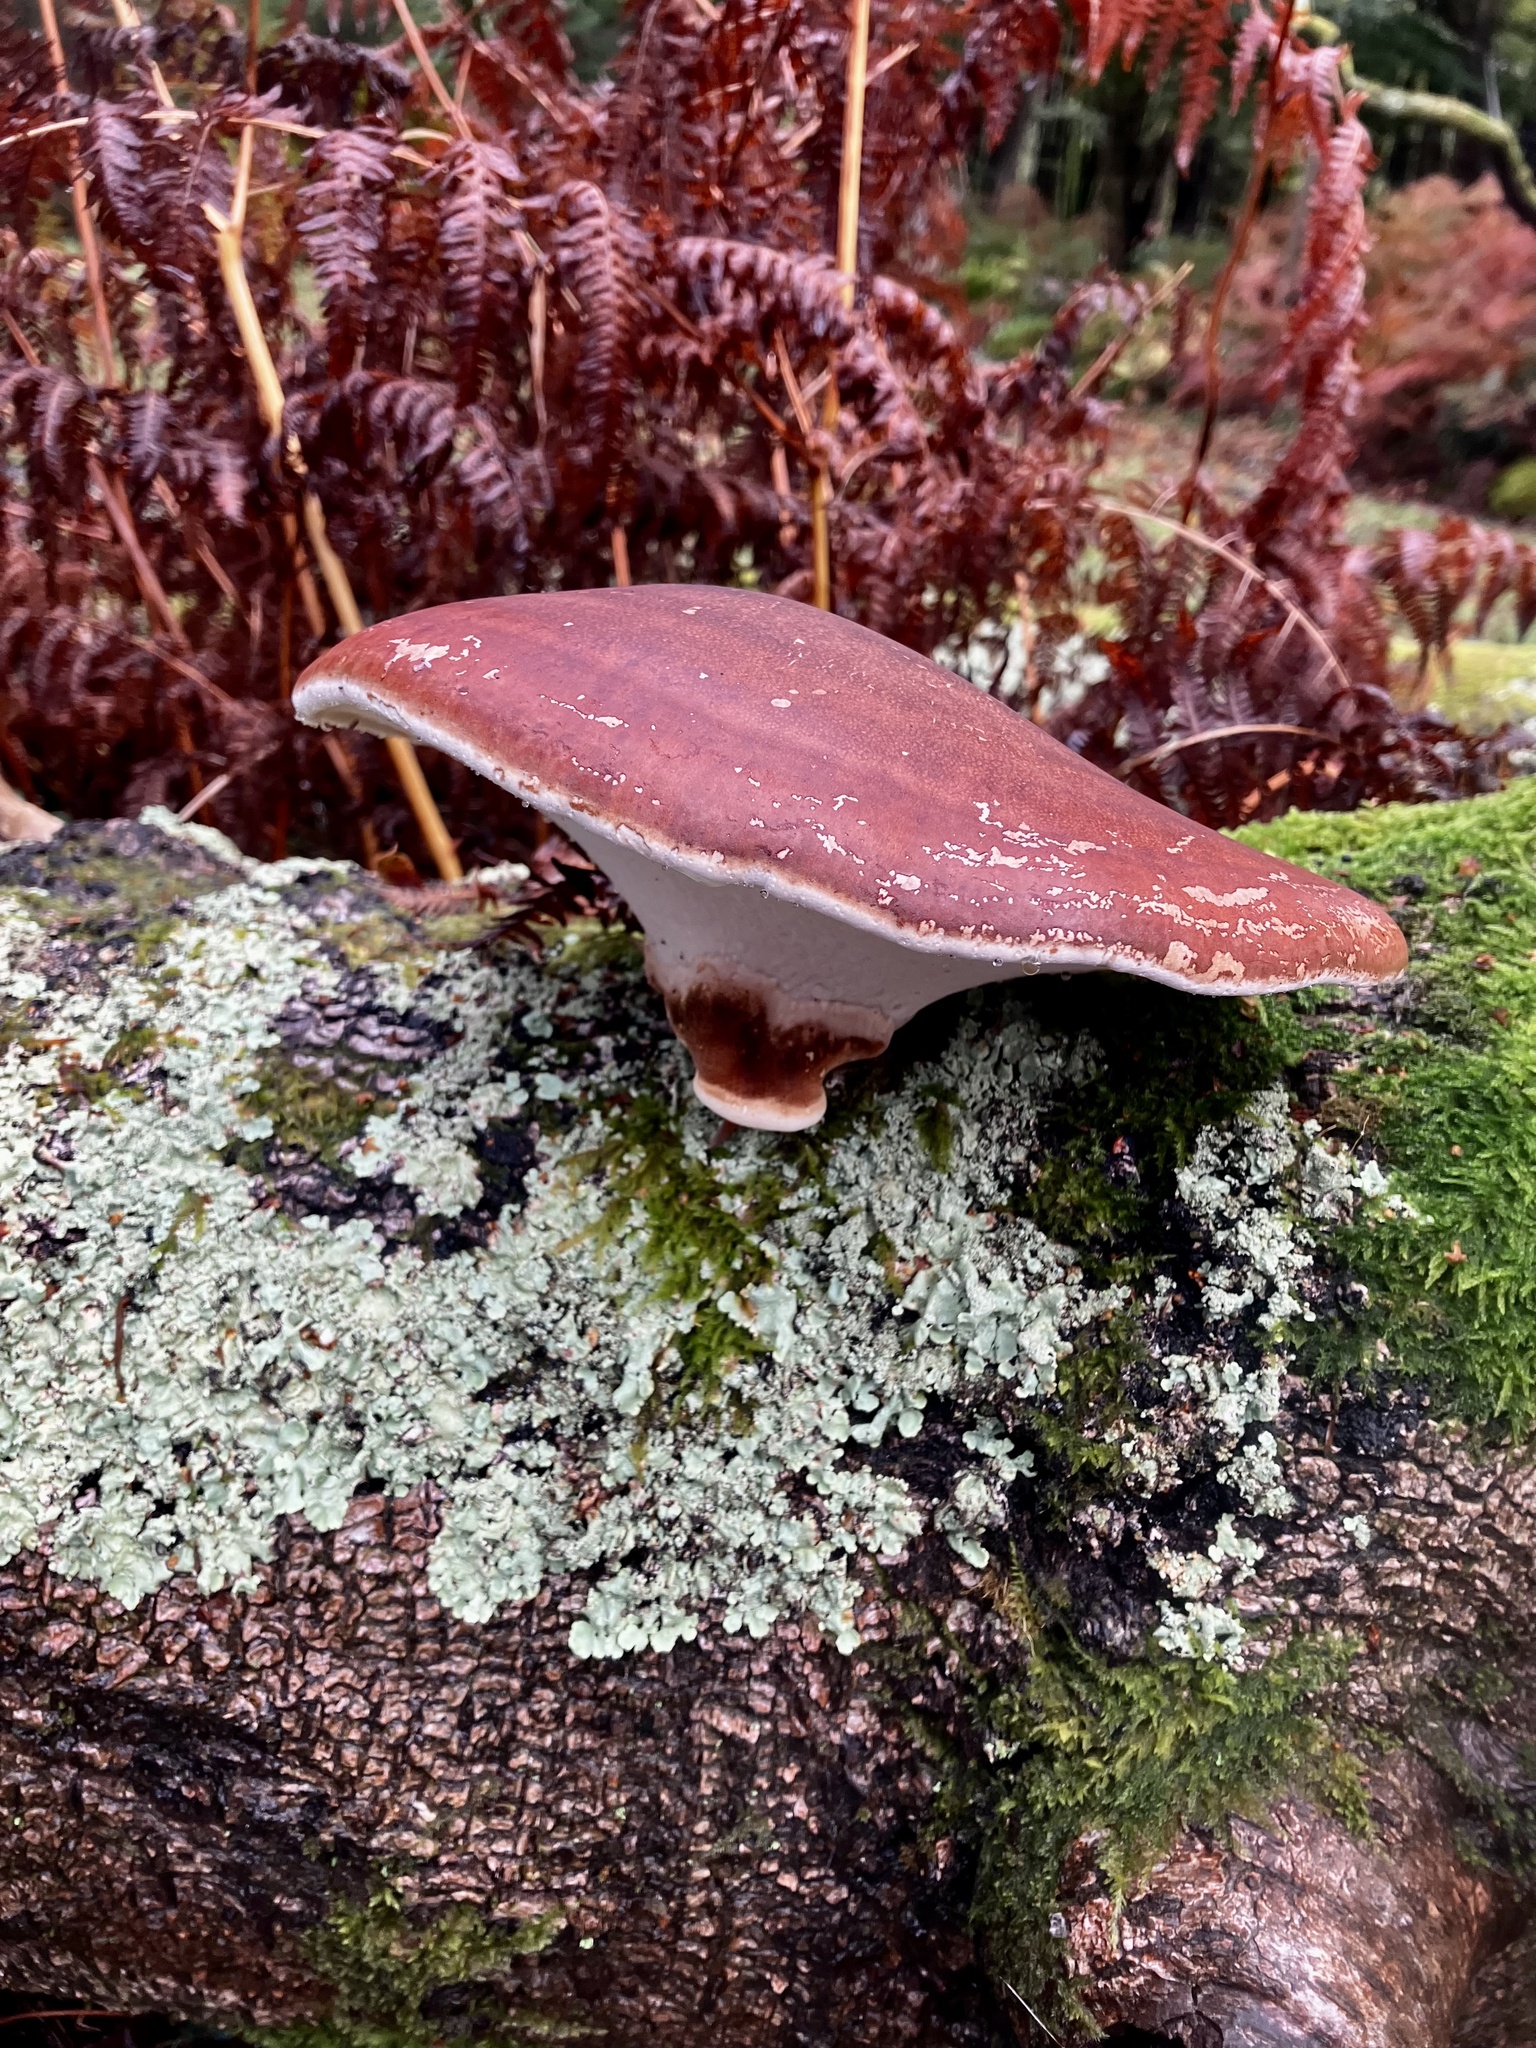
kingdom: Fungi
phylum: Basidiomycota
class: Agaricomycetes
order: Agaricales
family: Fistulinaceae
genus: Fistulina
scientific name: Fistulina hepatica
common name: Beef-steak fungus
